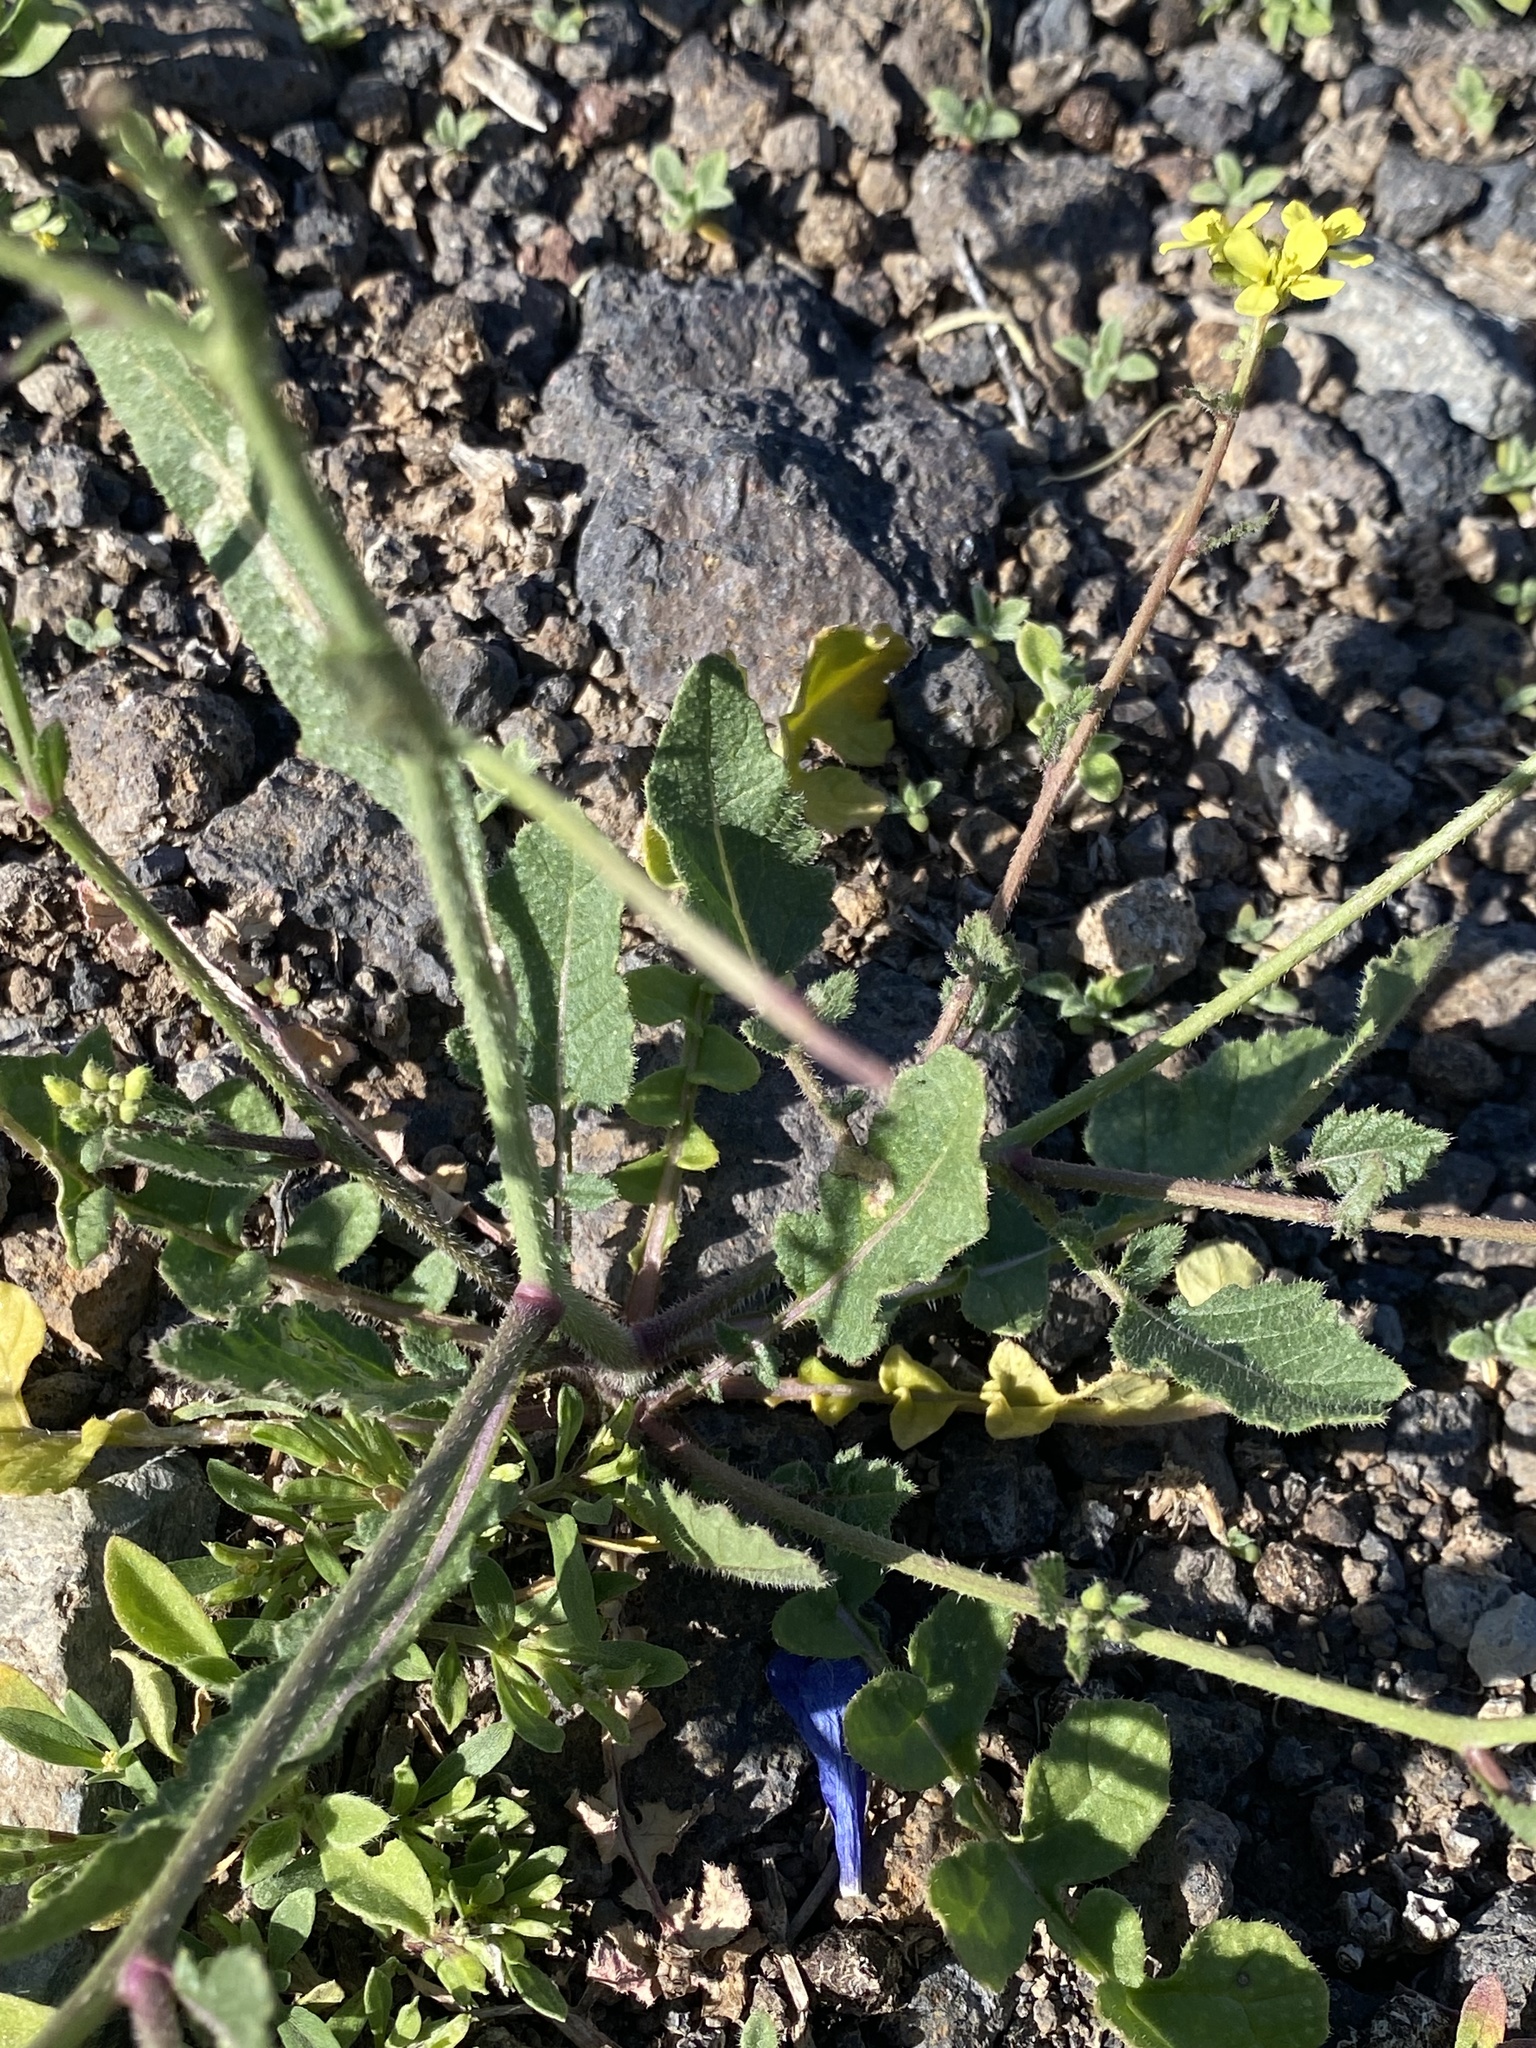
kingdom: Plantae
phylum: Tracheophyta
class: Magnoliopsida
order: Brassicales
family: Brassicaceae
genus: Erucastrum
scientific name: Erucastrum canariense
